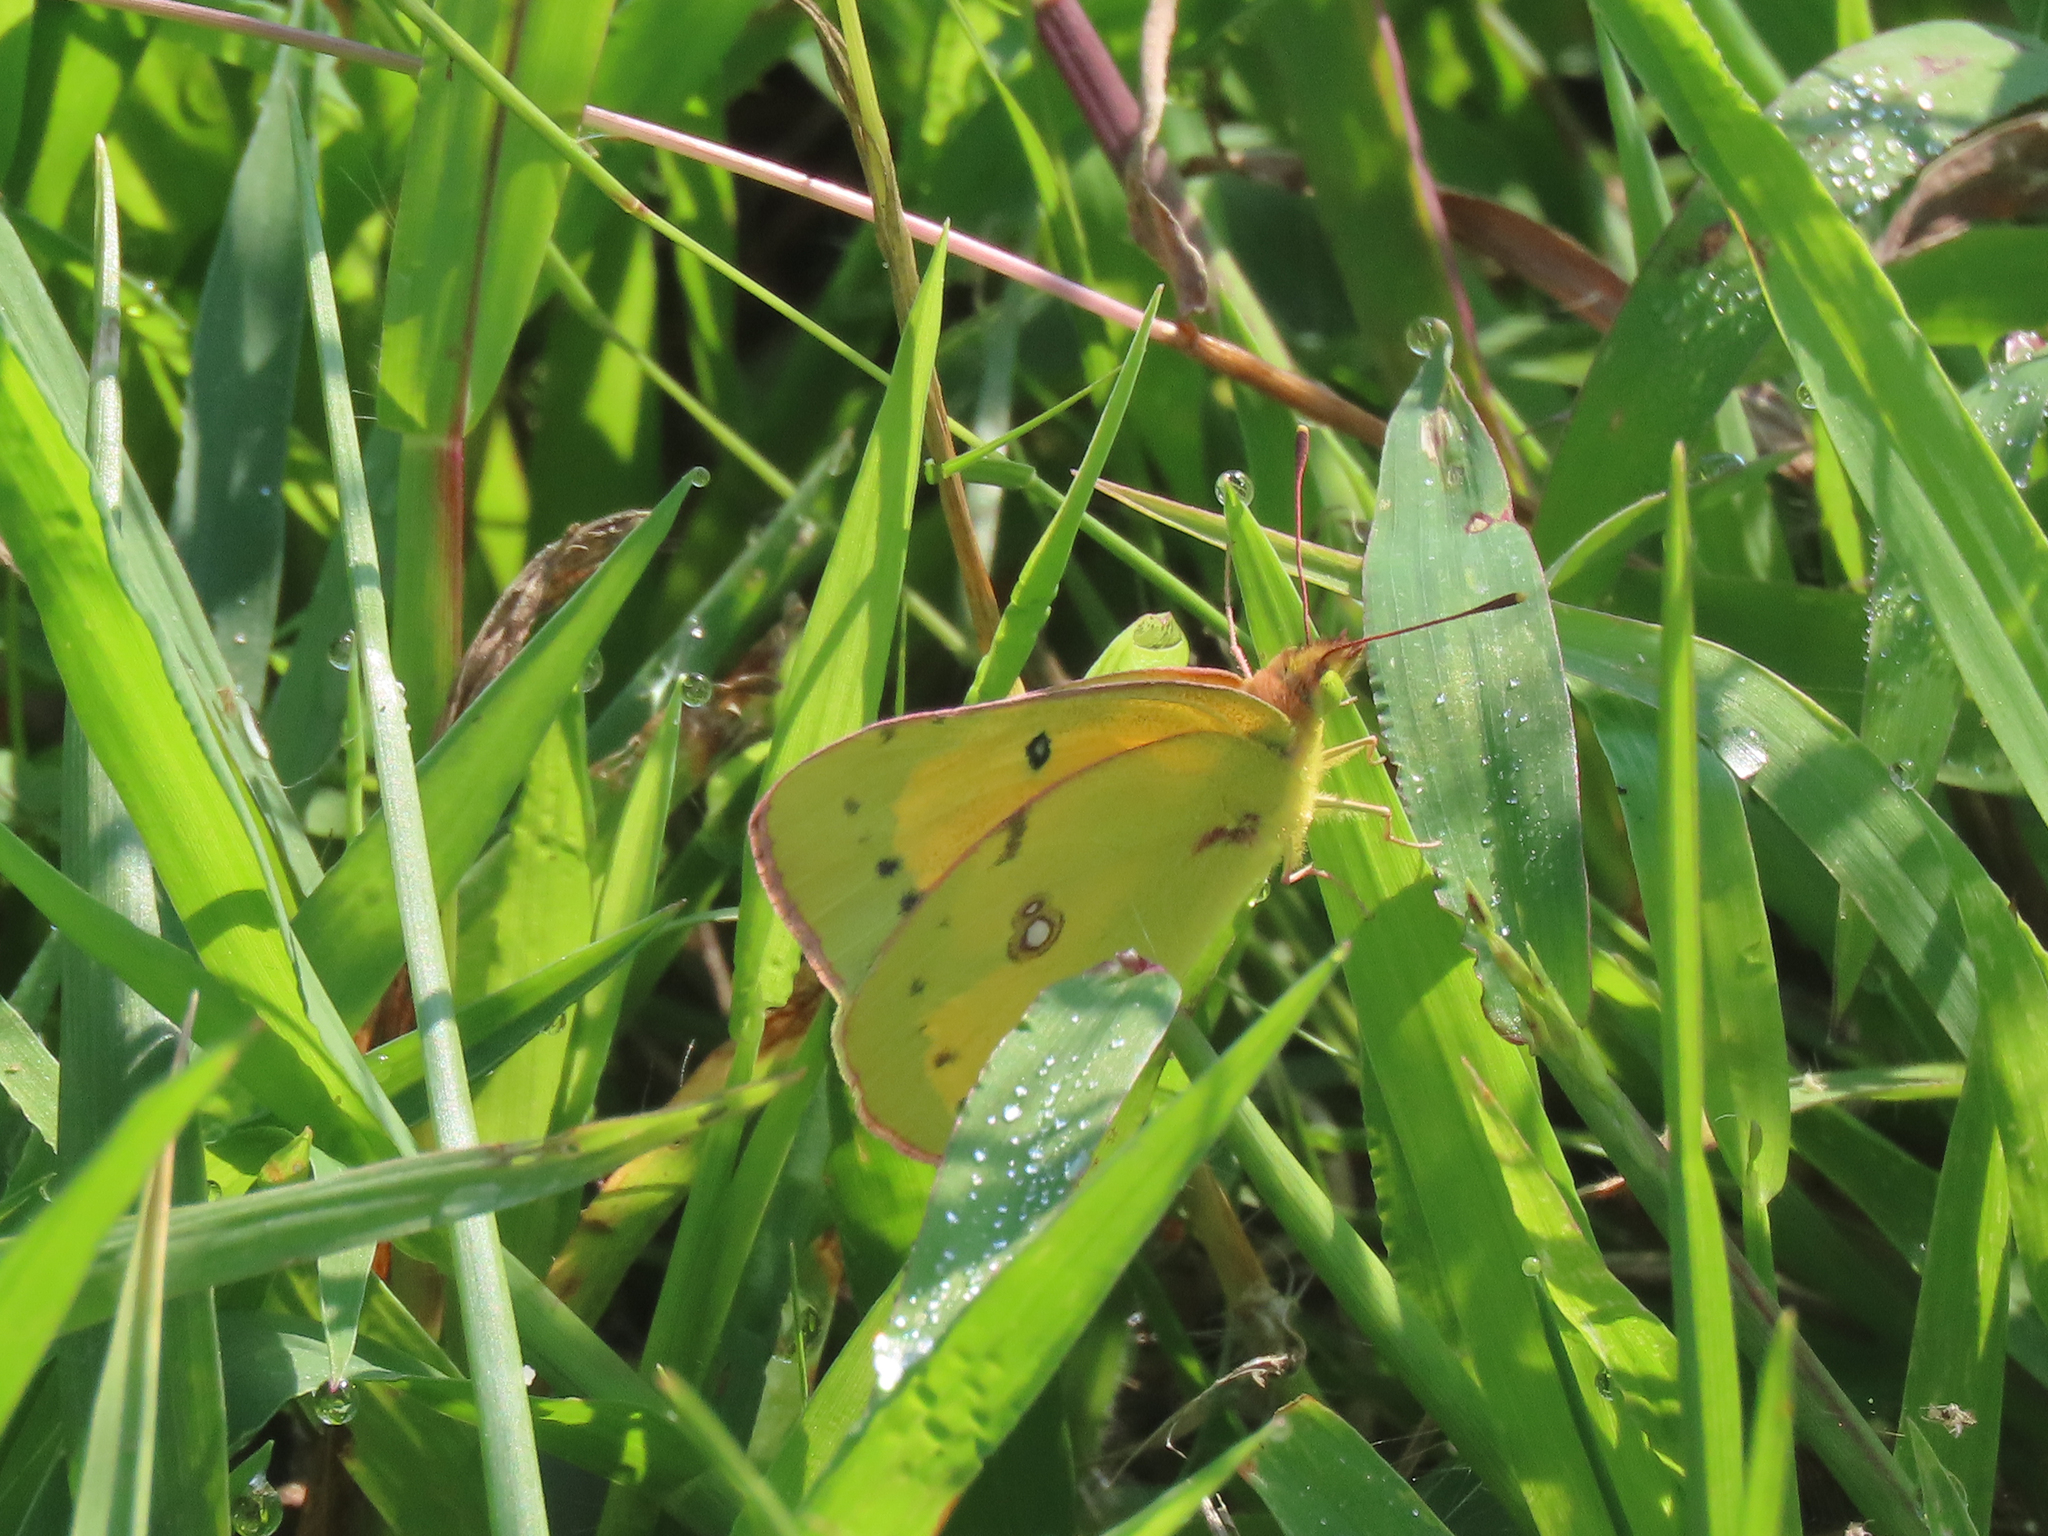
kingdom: Animalia
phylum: Arthropoda
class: Insecta
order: Lepidoptera
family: Pieridae
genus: Colias
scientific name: Colias eurytheme
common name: Alfalfa butterfly
